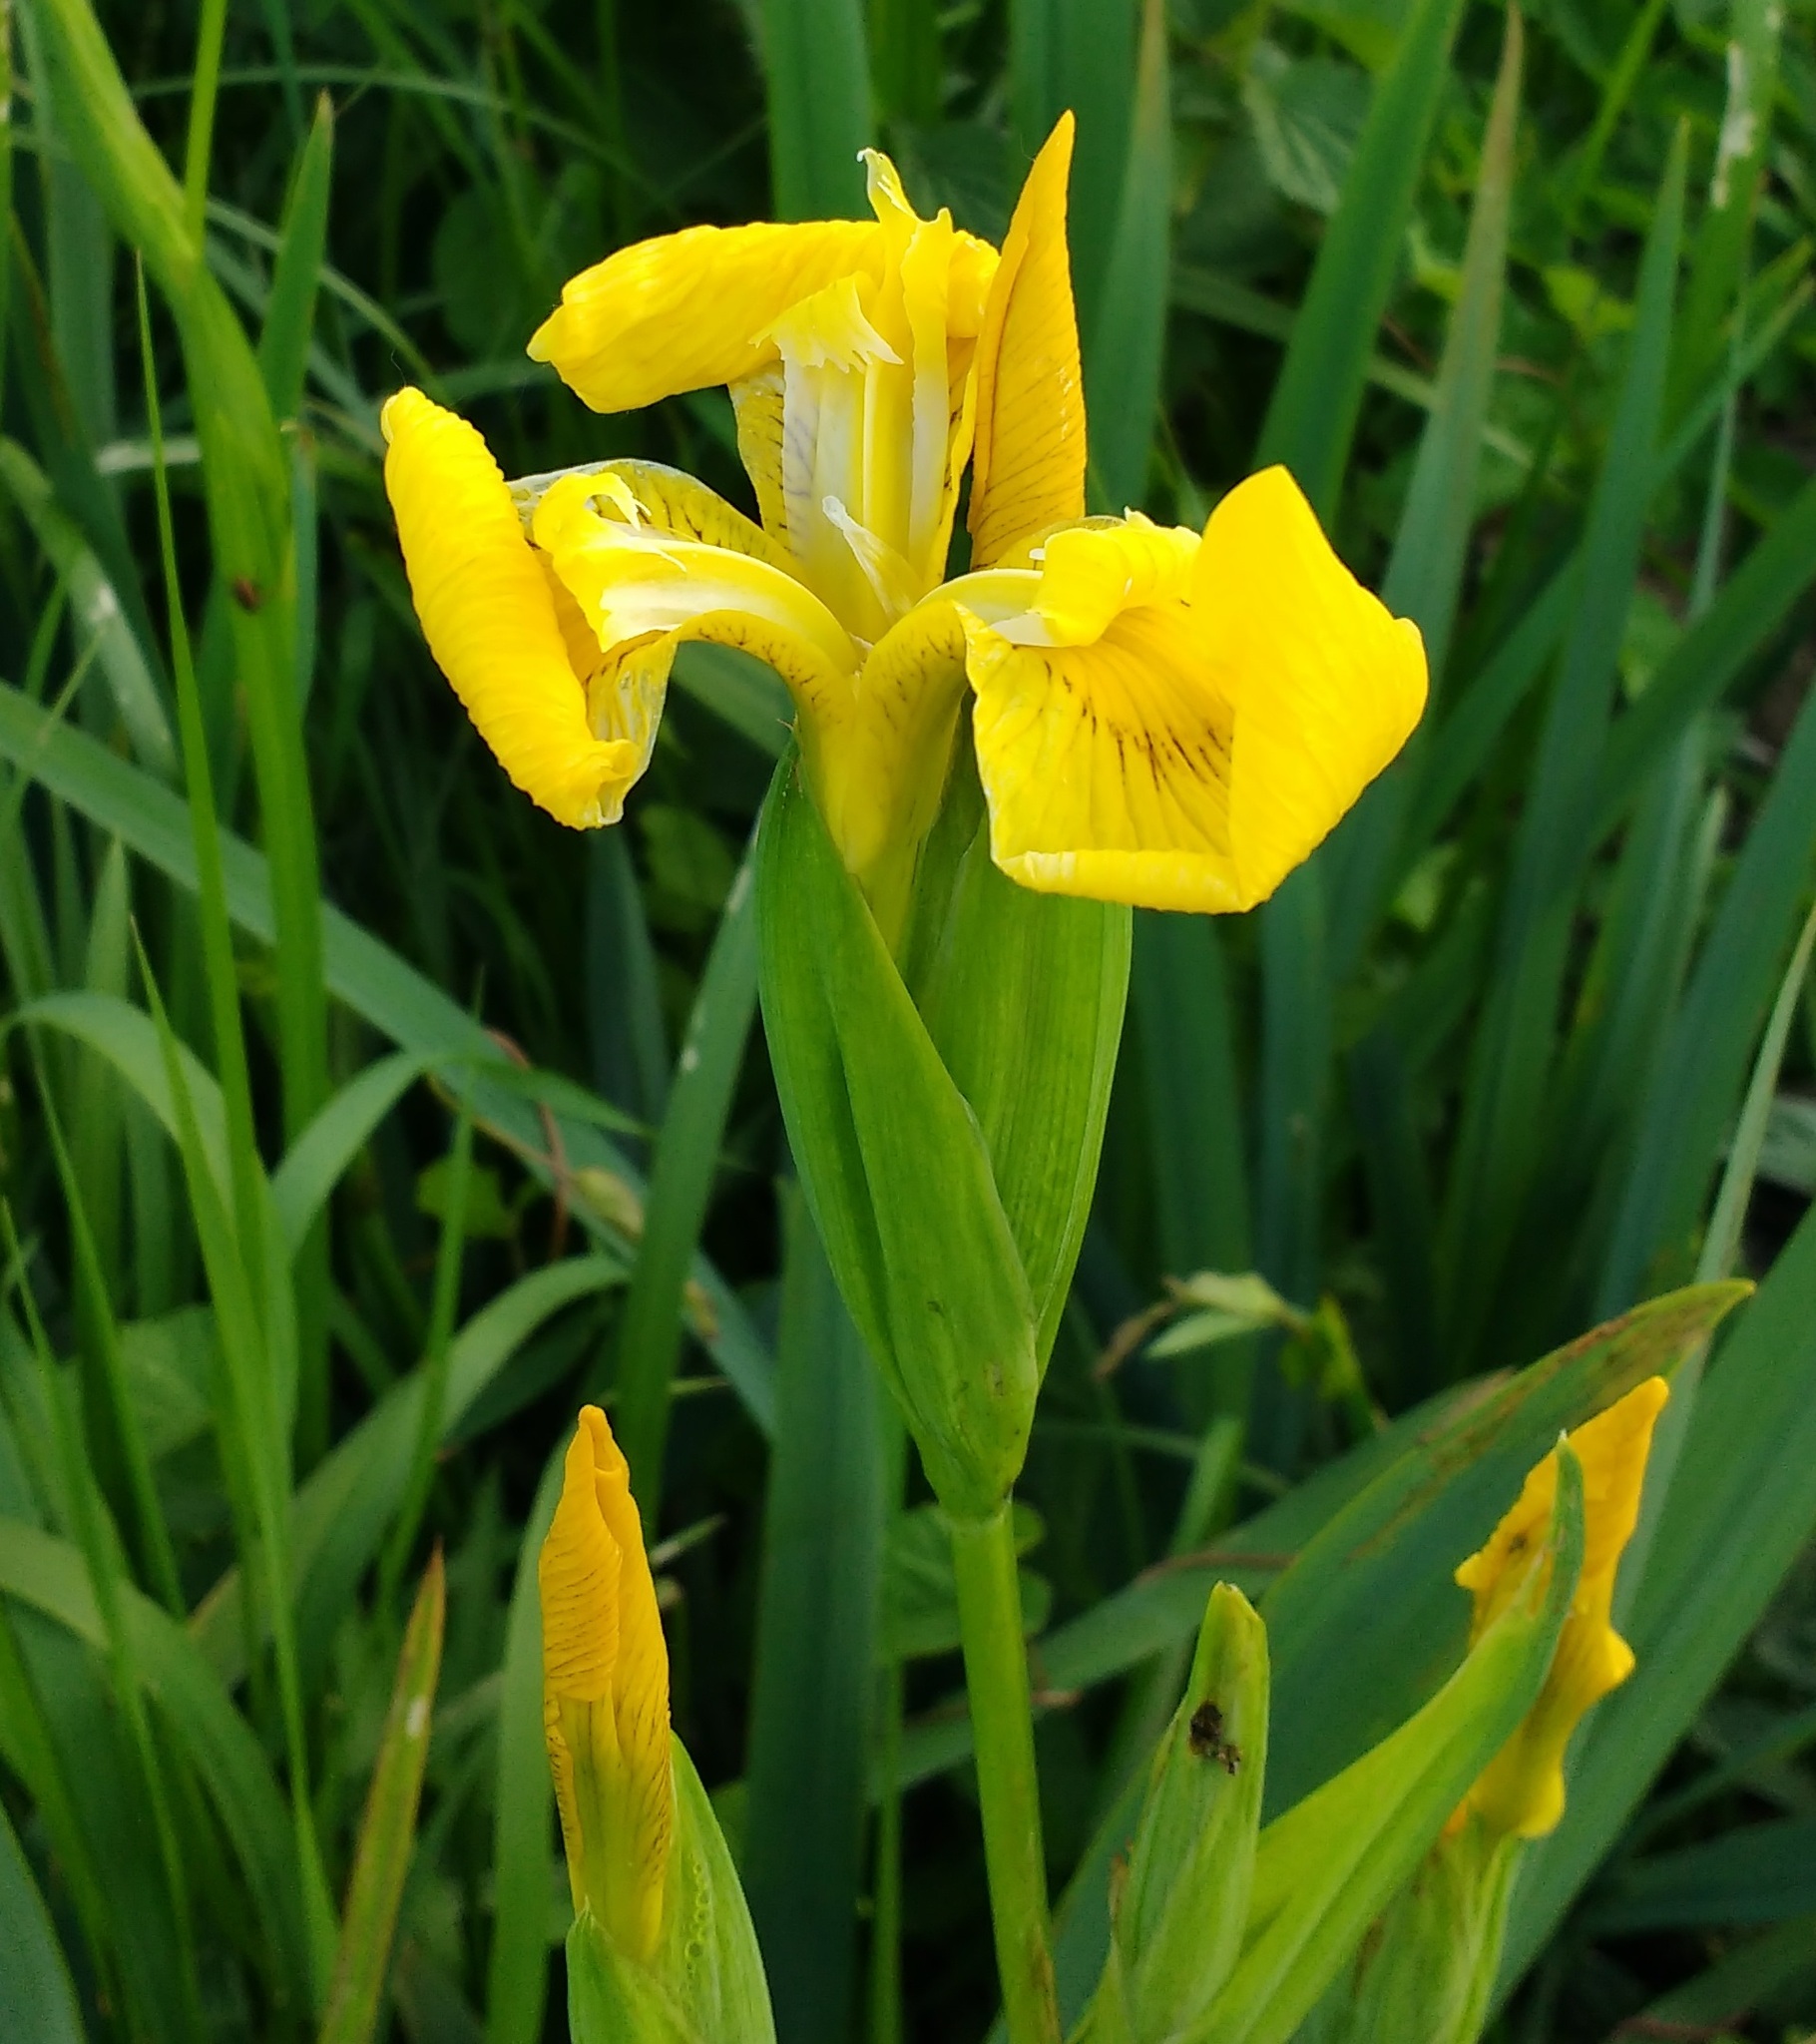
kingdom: Plantae
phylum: Tracheophyta
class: Liliopsida
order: Asparagales
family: Iridaceae
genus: Iris
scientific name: Iris pseudacorus
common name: Yellow flag
